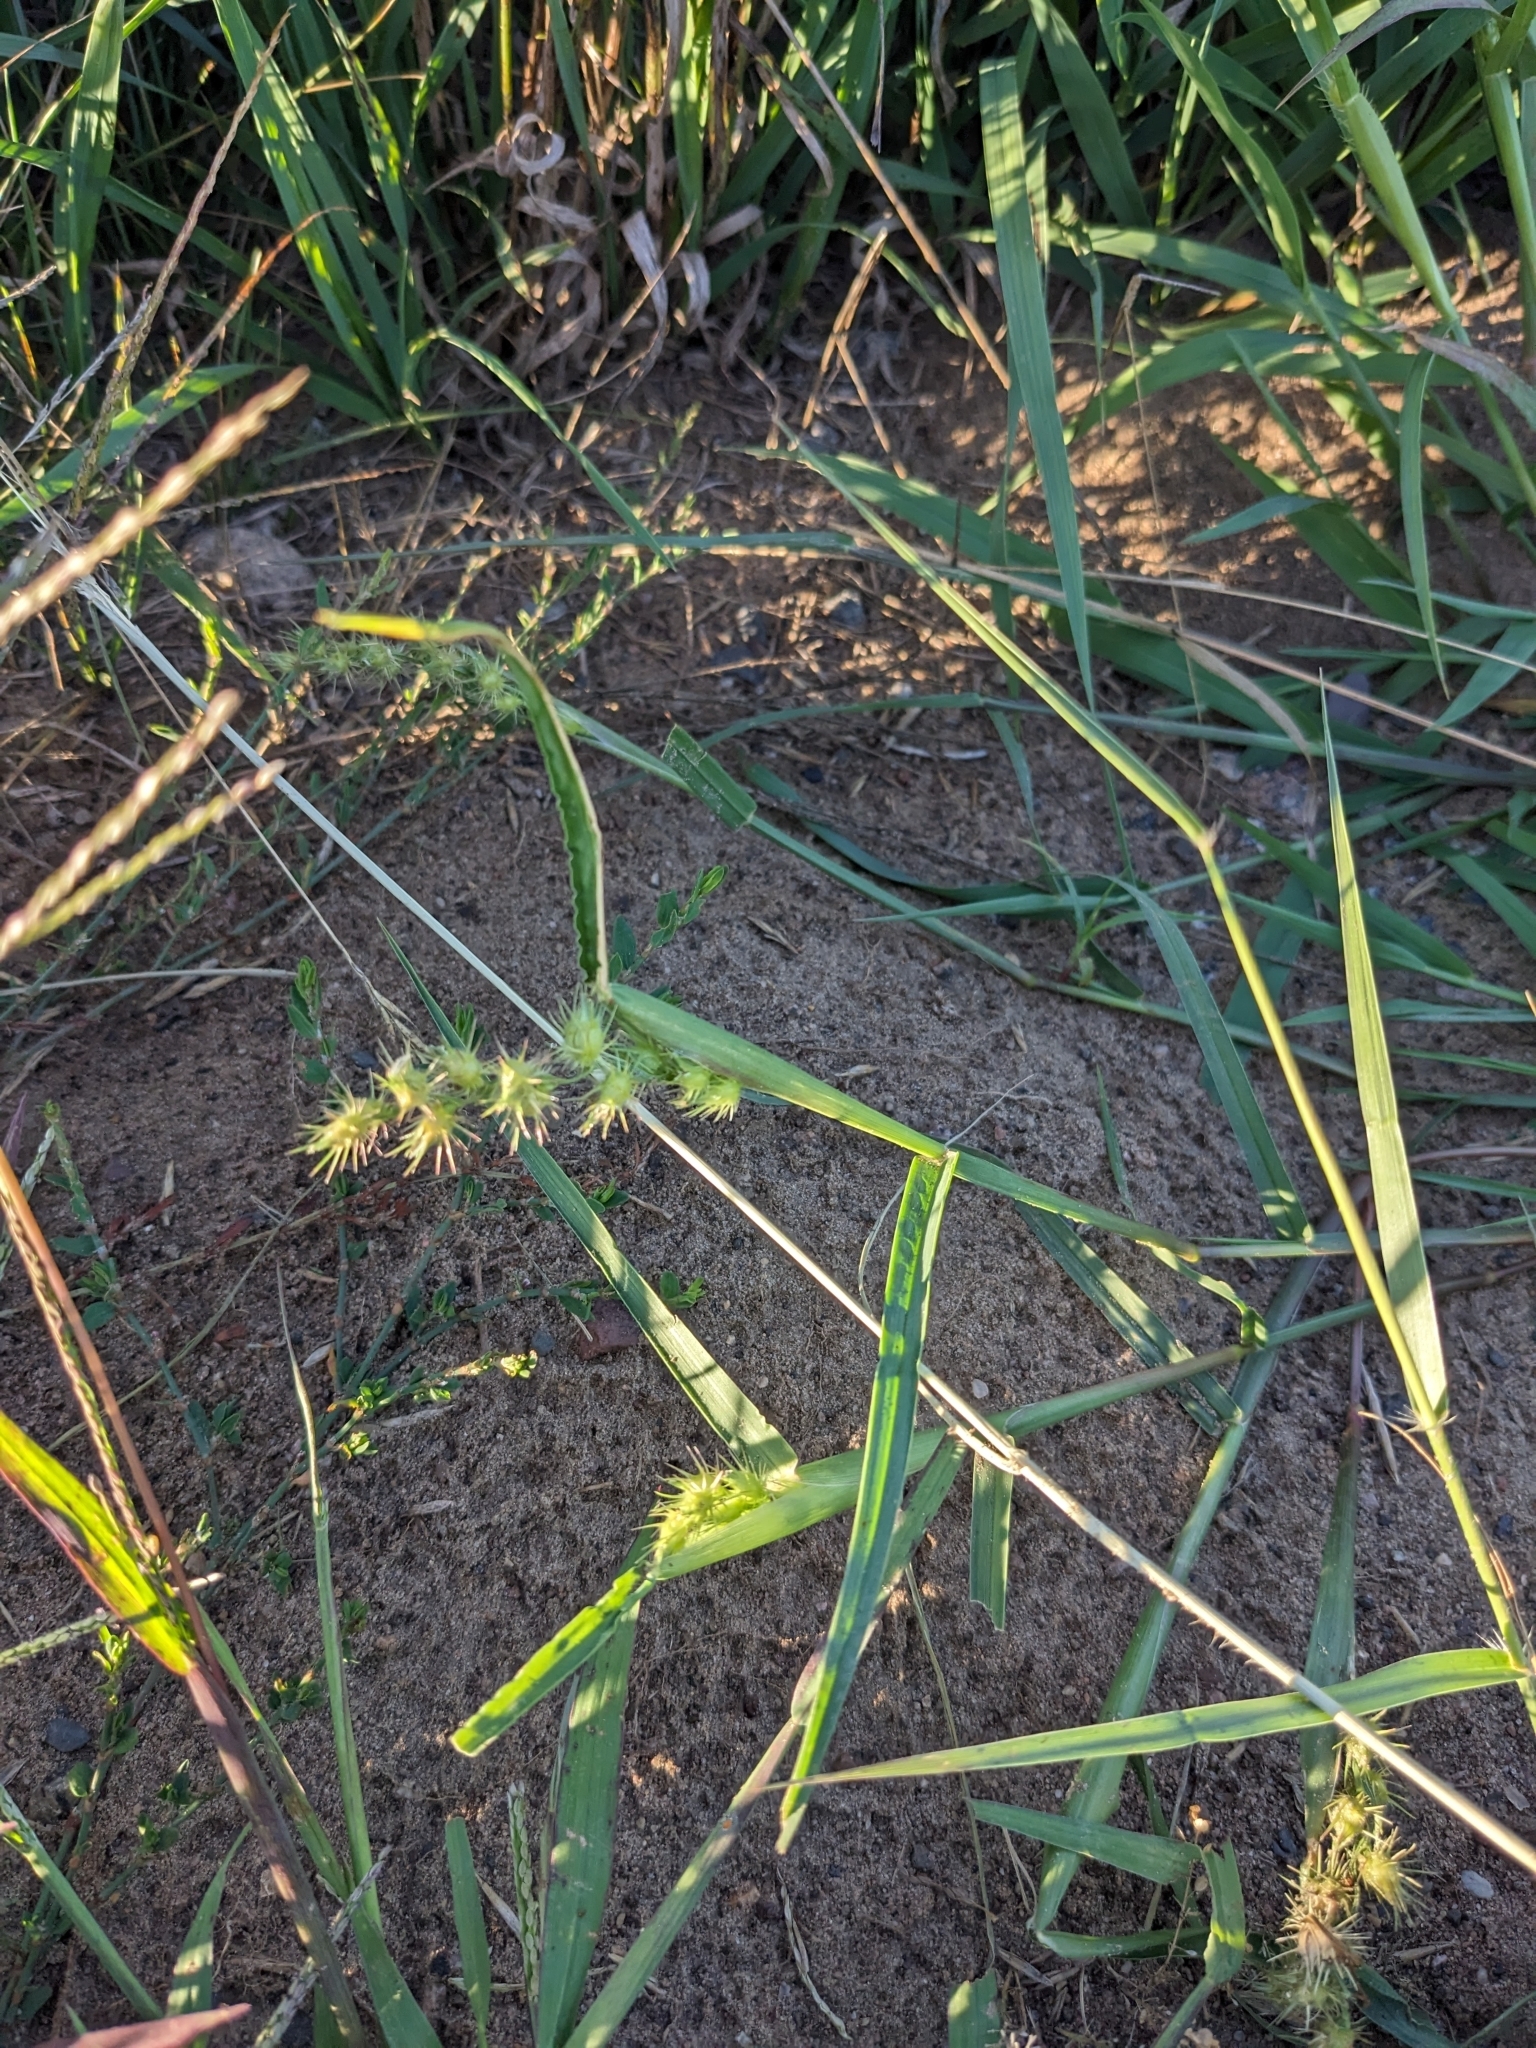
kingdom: Plantae
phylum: Tracheophyta
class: Liliopsida
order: Poales
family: Poaceae
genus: Cenchrus
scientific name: Cenchrus longispinus
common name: Mat sandbur
